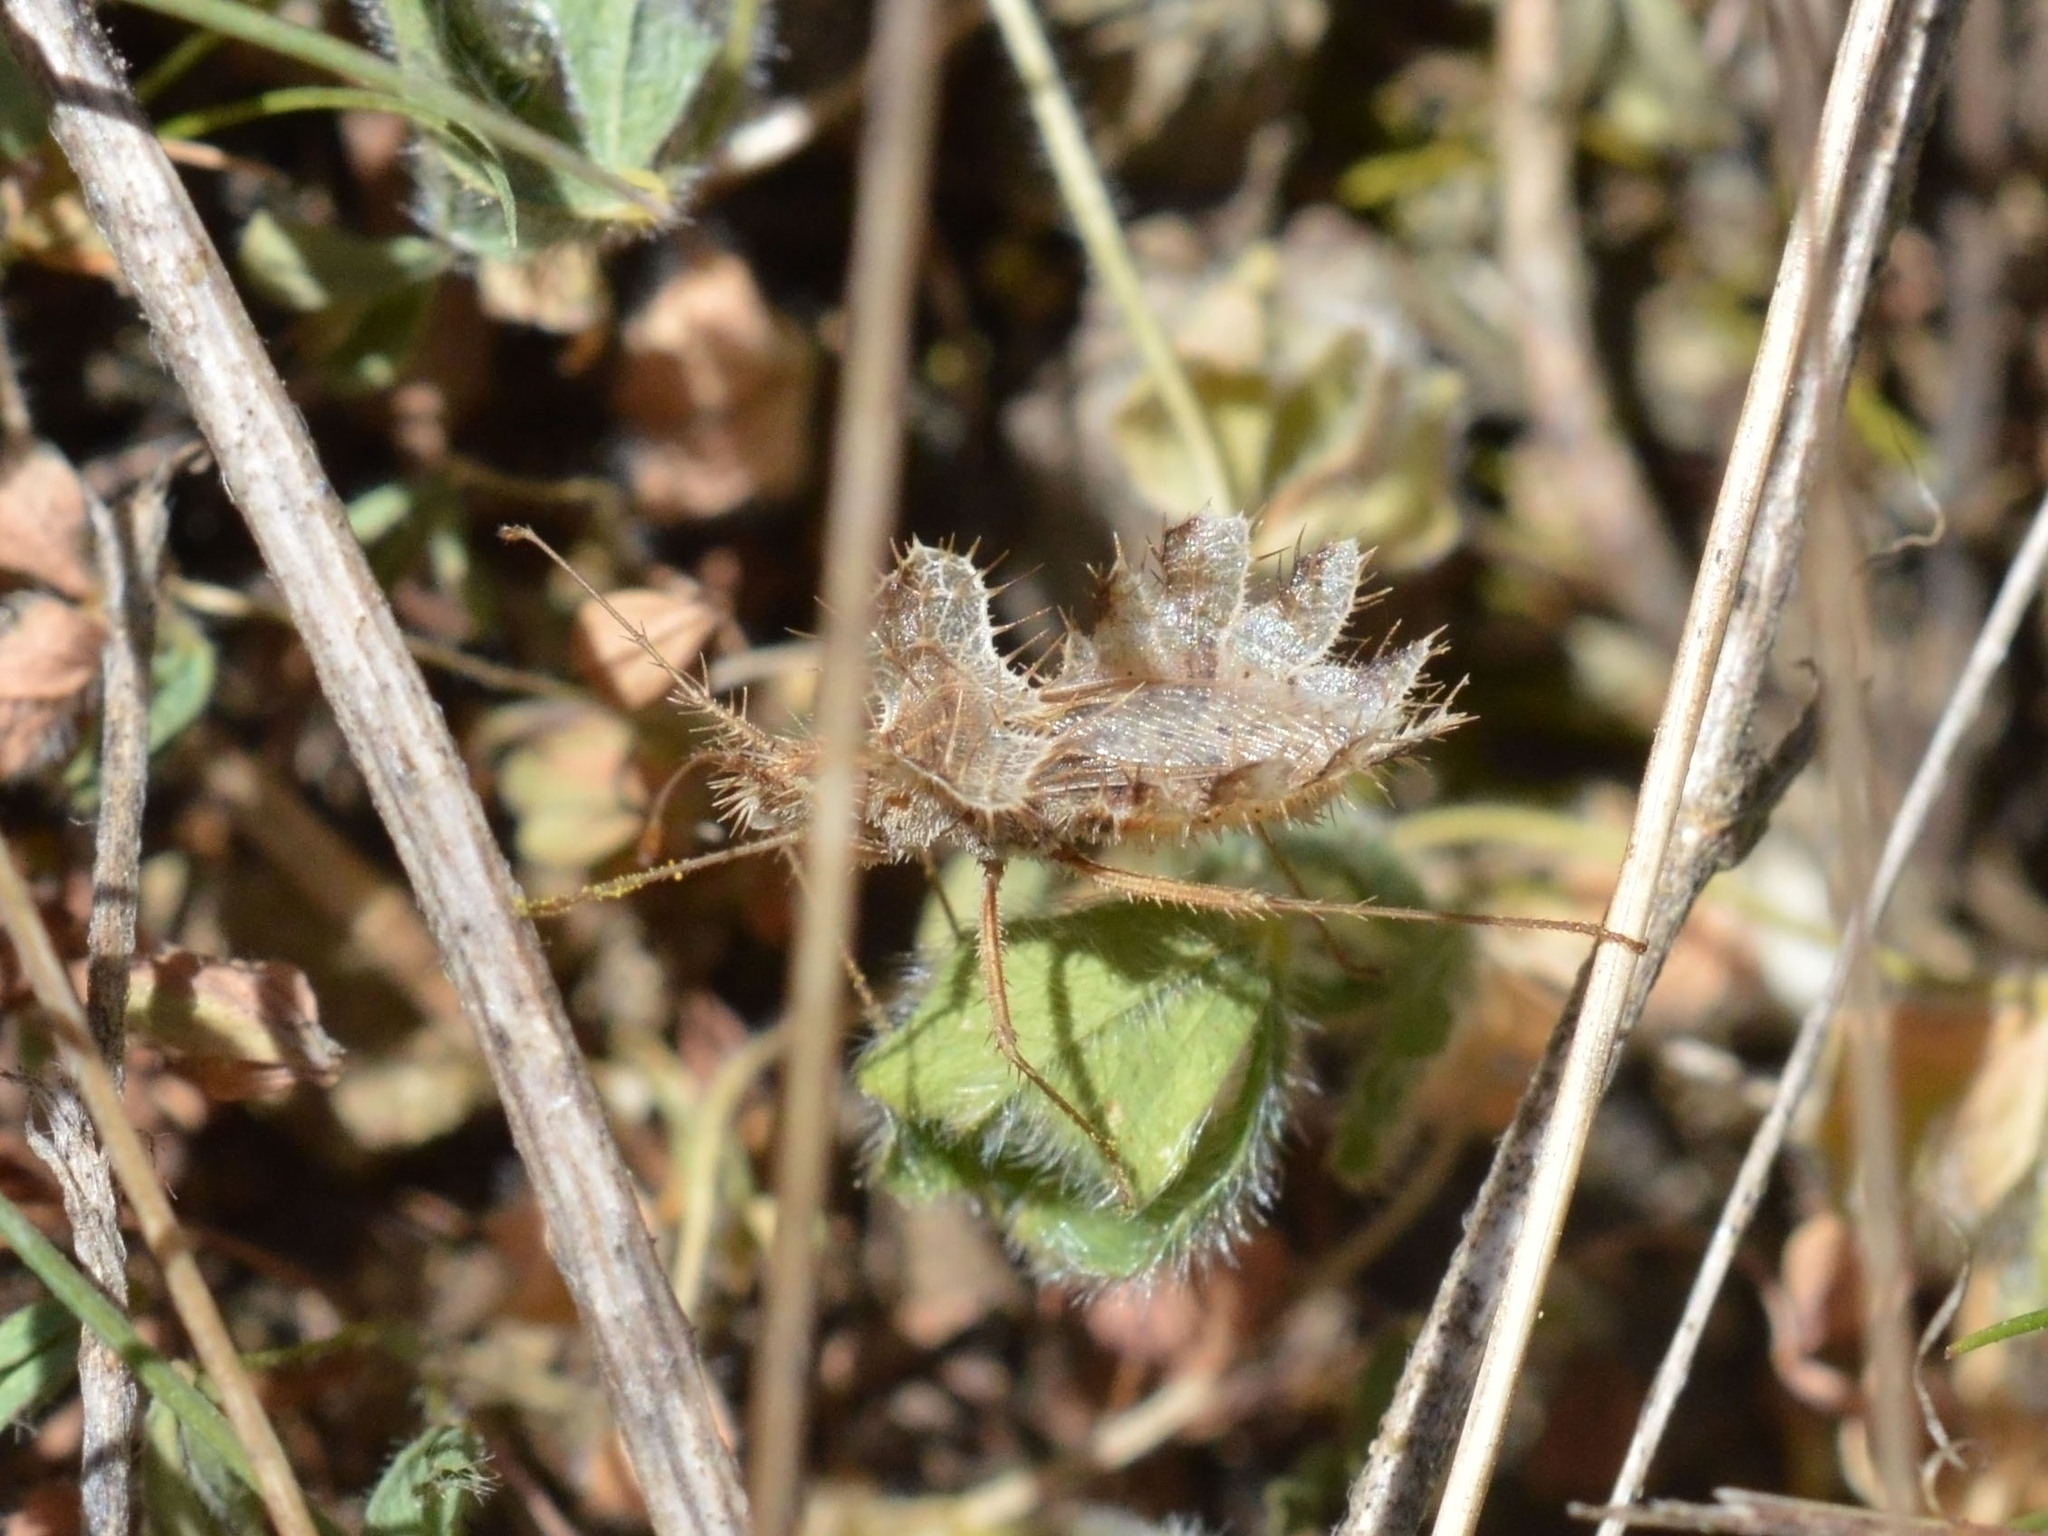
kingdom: Animalia
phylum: Arthropoda
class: Insecta
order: Hemiptera
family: Coreidae
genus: Phyllomorpha
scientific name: Phyllomorpha laciniata
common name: Golden egg bug
